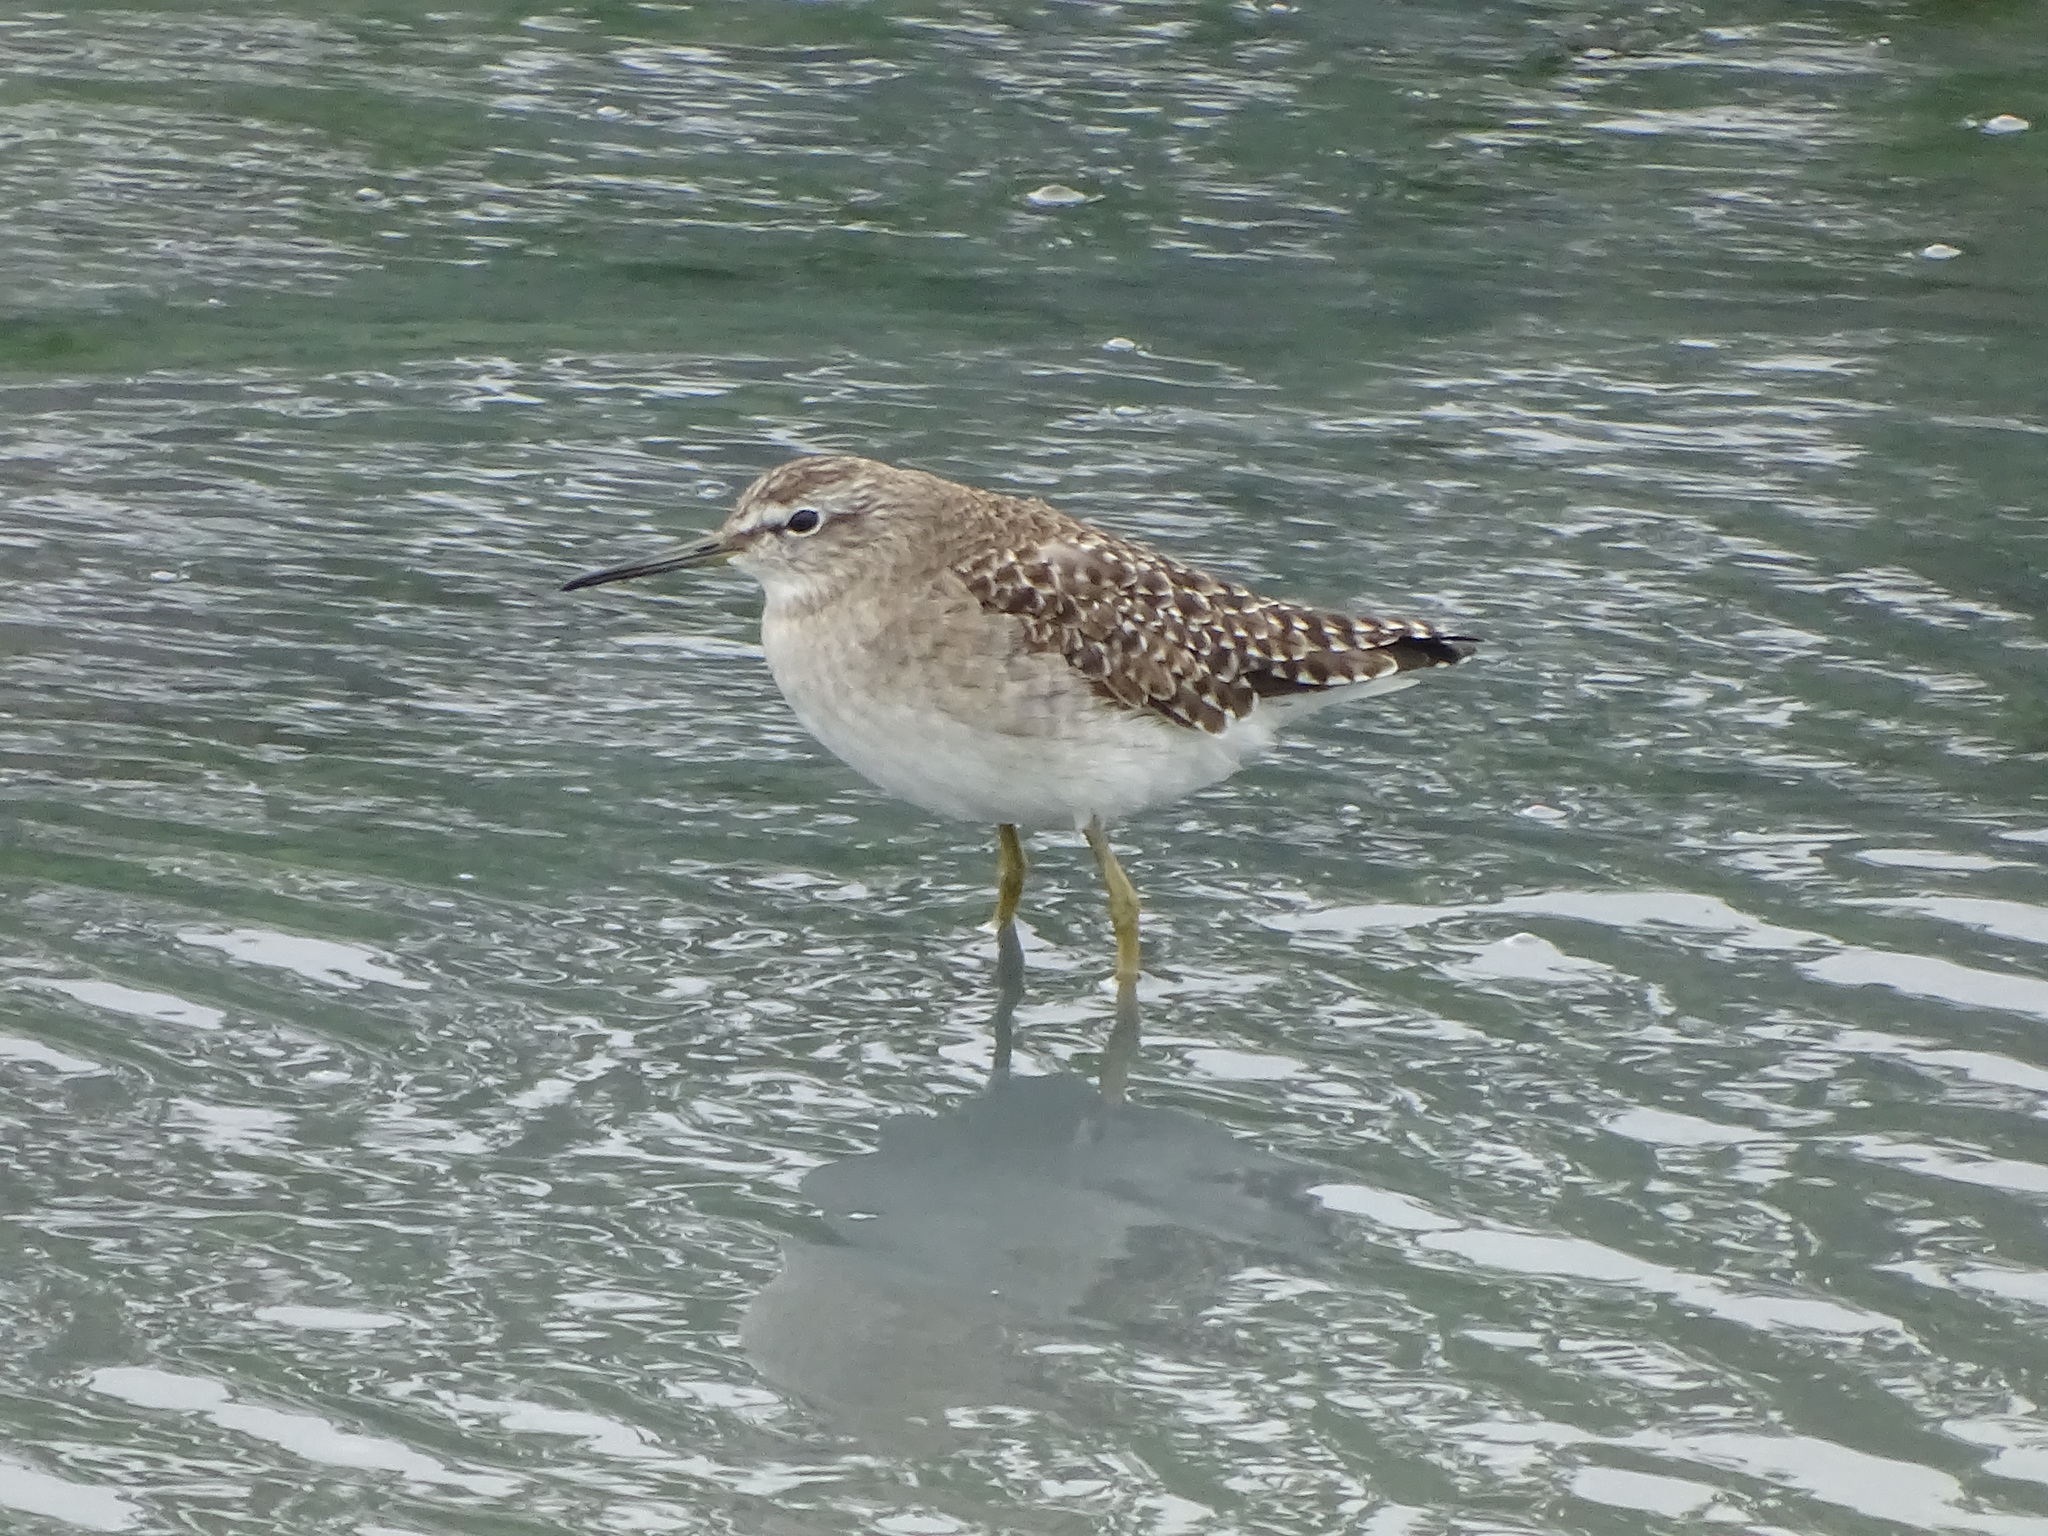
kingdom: Animalia
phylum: Chordata
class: Aves
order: Charadriiformes
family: Scolopacidae
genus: Tringa
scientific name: Tringa glareola
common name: Wood sandpiper
